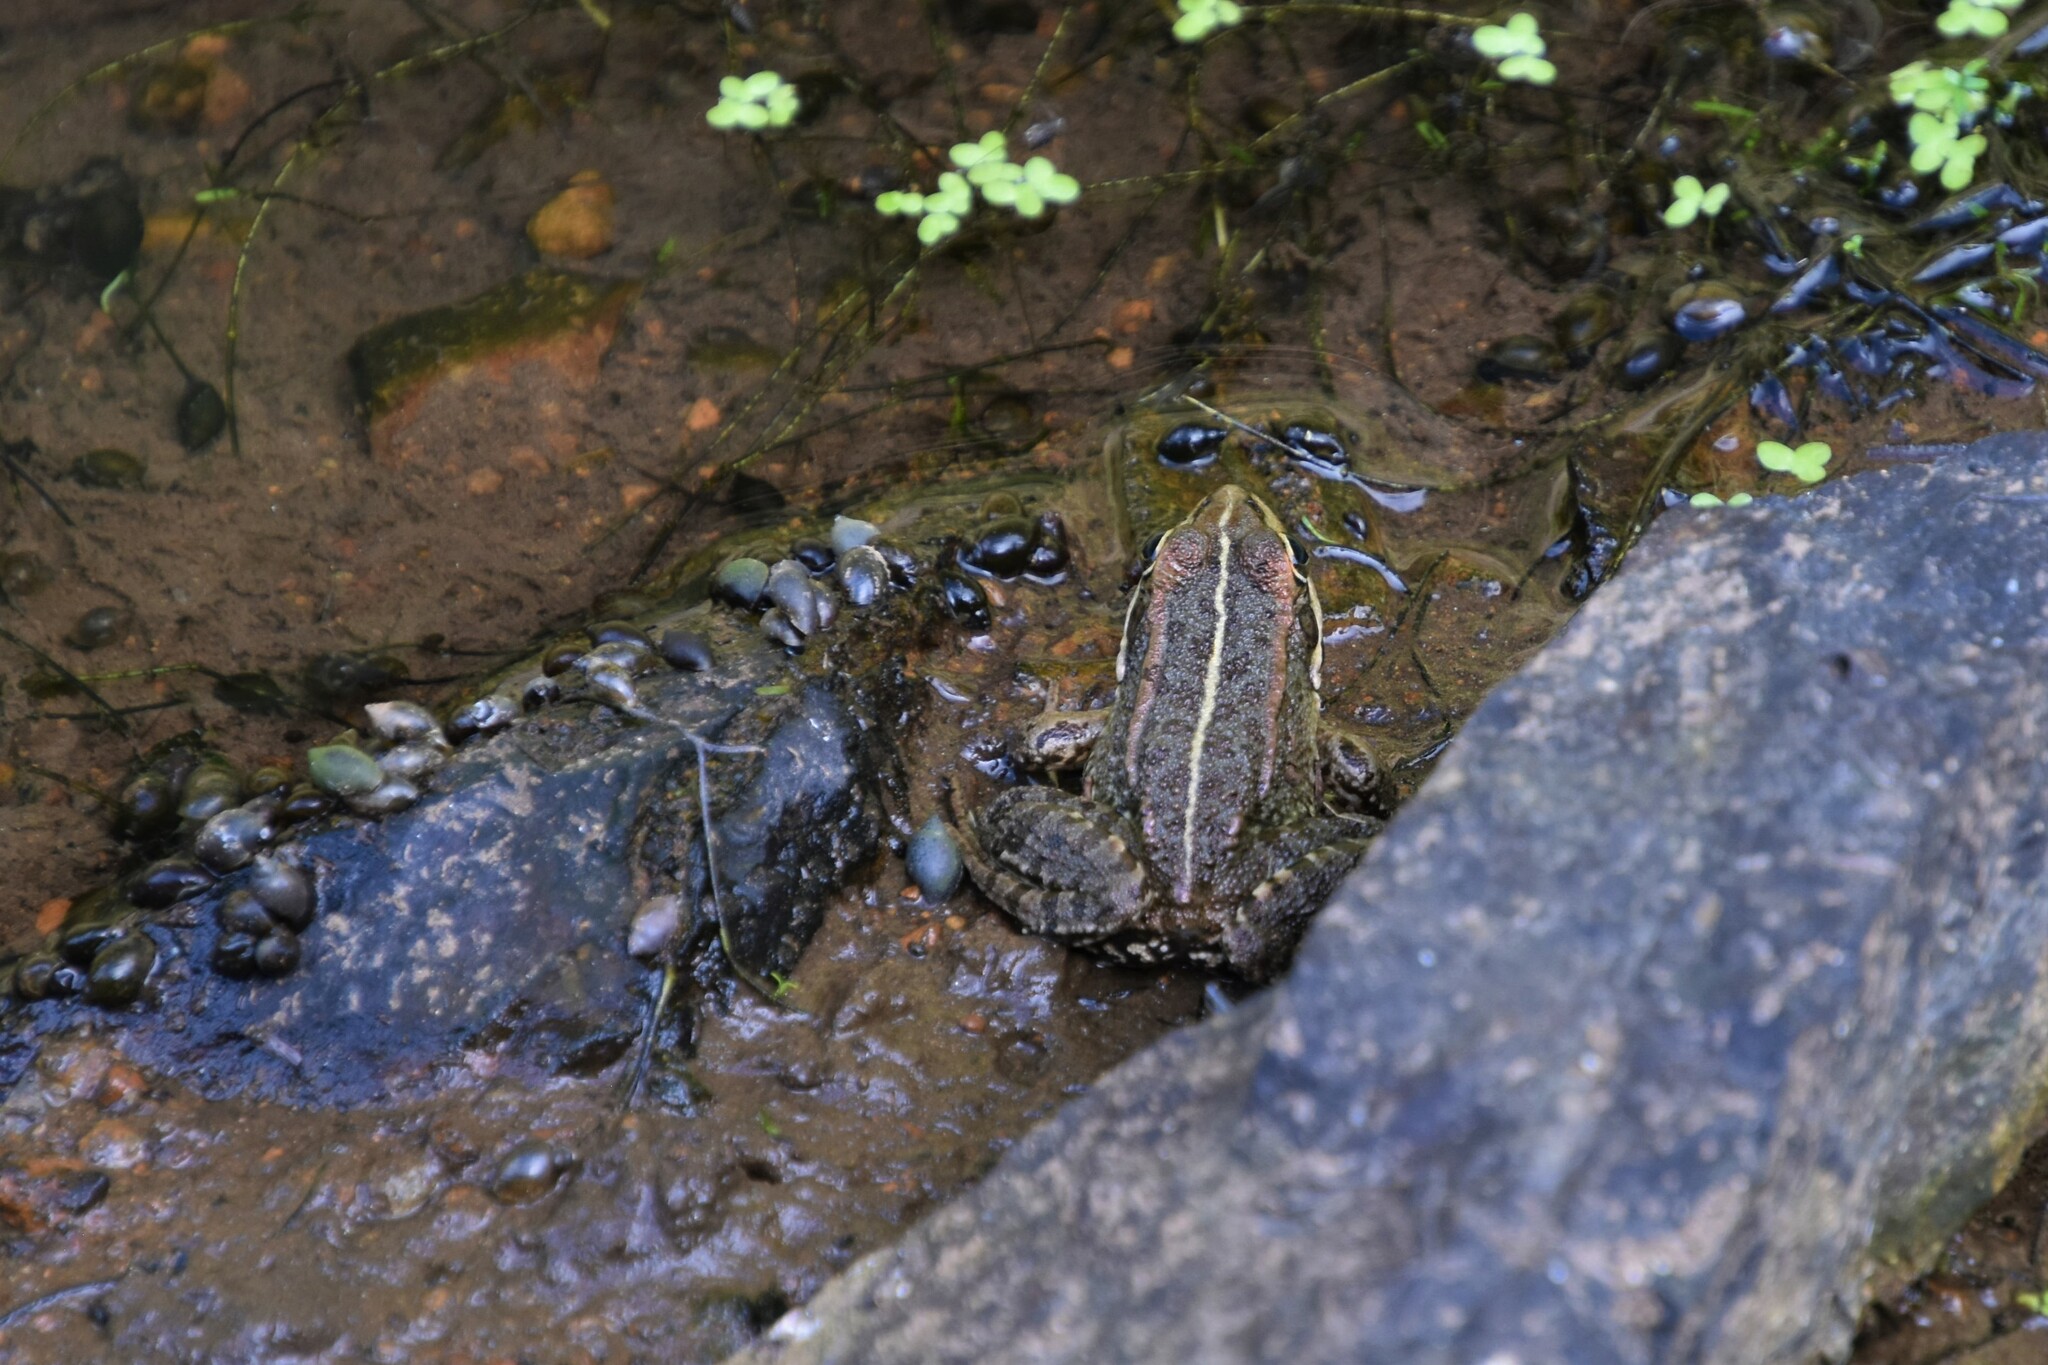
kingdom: Animalia
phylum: Chordata
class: Amphibia
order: Anura
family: Ranidae
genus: Pelophylax
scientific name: Pelophylax perezi
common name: Perez's frog
